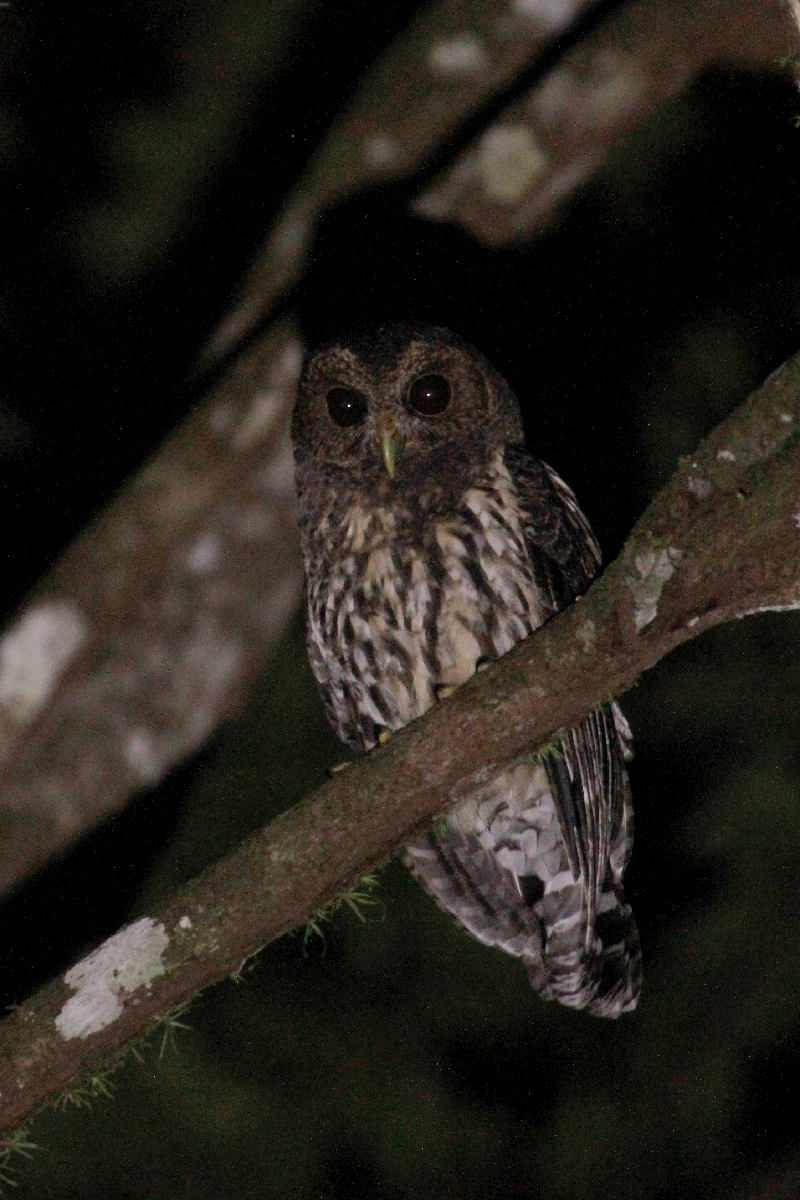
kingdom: Animalia
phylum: Chordata
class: Aves
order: Strigiformes
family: Strigidae
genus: Strix
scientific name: Strix virgata
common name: Mottled owl
